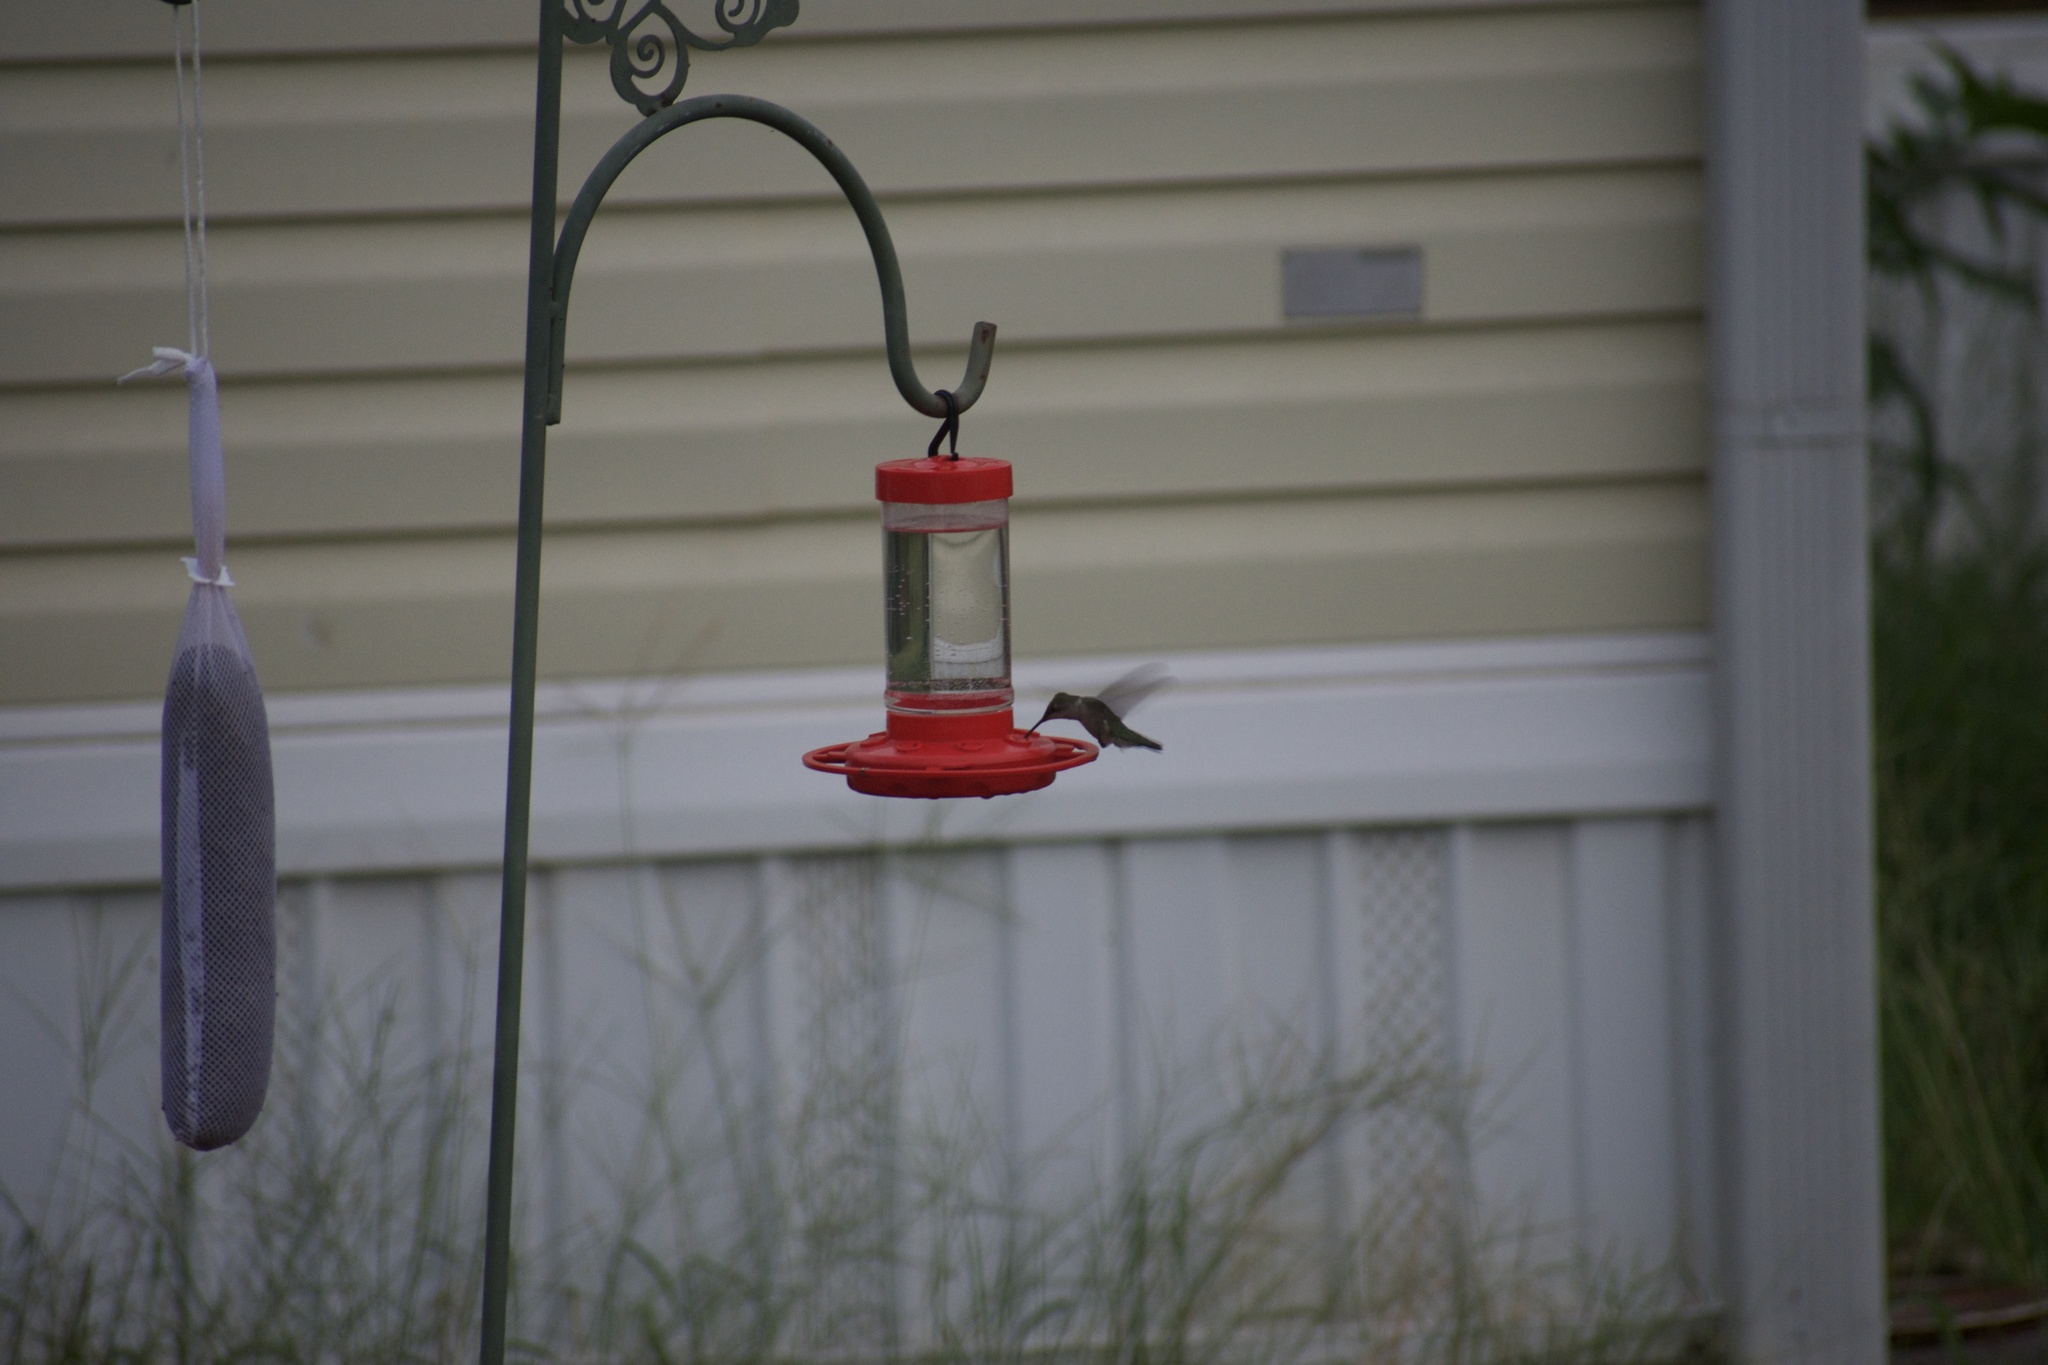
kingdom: Animalia
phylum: Chordata
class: Aves
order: Apodiformes
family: Trochilidae
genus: Archilochus
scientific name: Archilochus colubris
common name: Ruby-throated hummingbird
